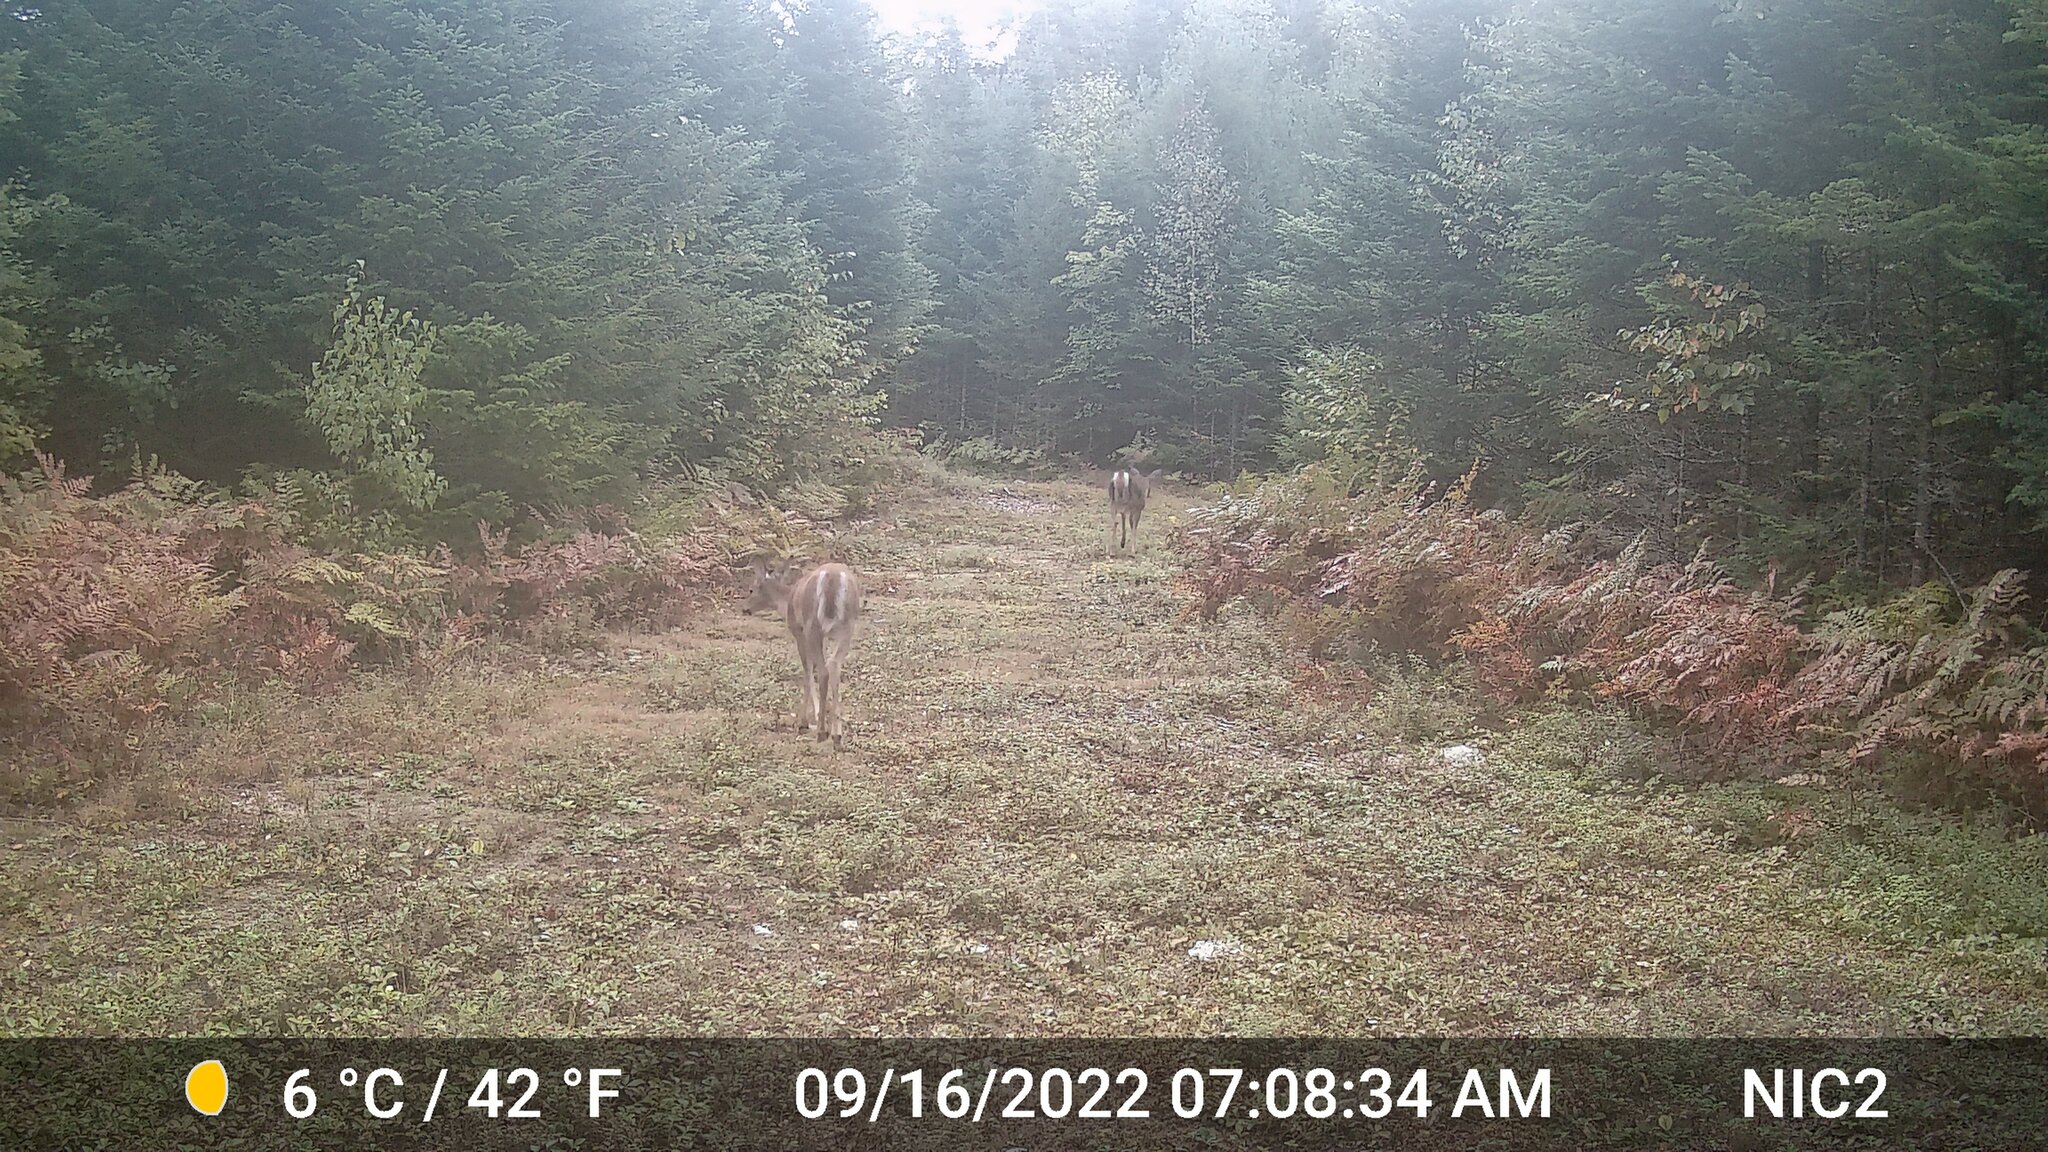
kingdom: Animalia
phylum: Chordata
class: Mammalia
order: Artiodactyla
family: Cervidae
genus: Odocoileus
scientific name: Odocoileus virginianus
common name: White-tailed deer
